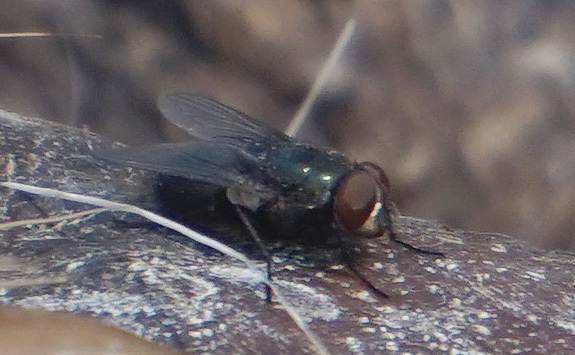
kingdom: Animalia
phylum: Arthropoda
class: Insecta
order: Diptera
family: Calliphoridae
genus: Phormia
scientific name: Phormia regina
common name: Black blow fly
